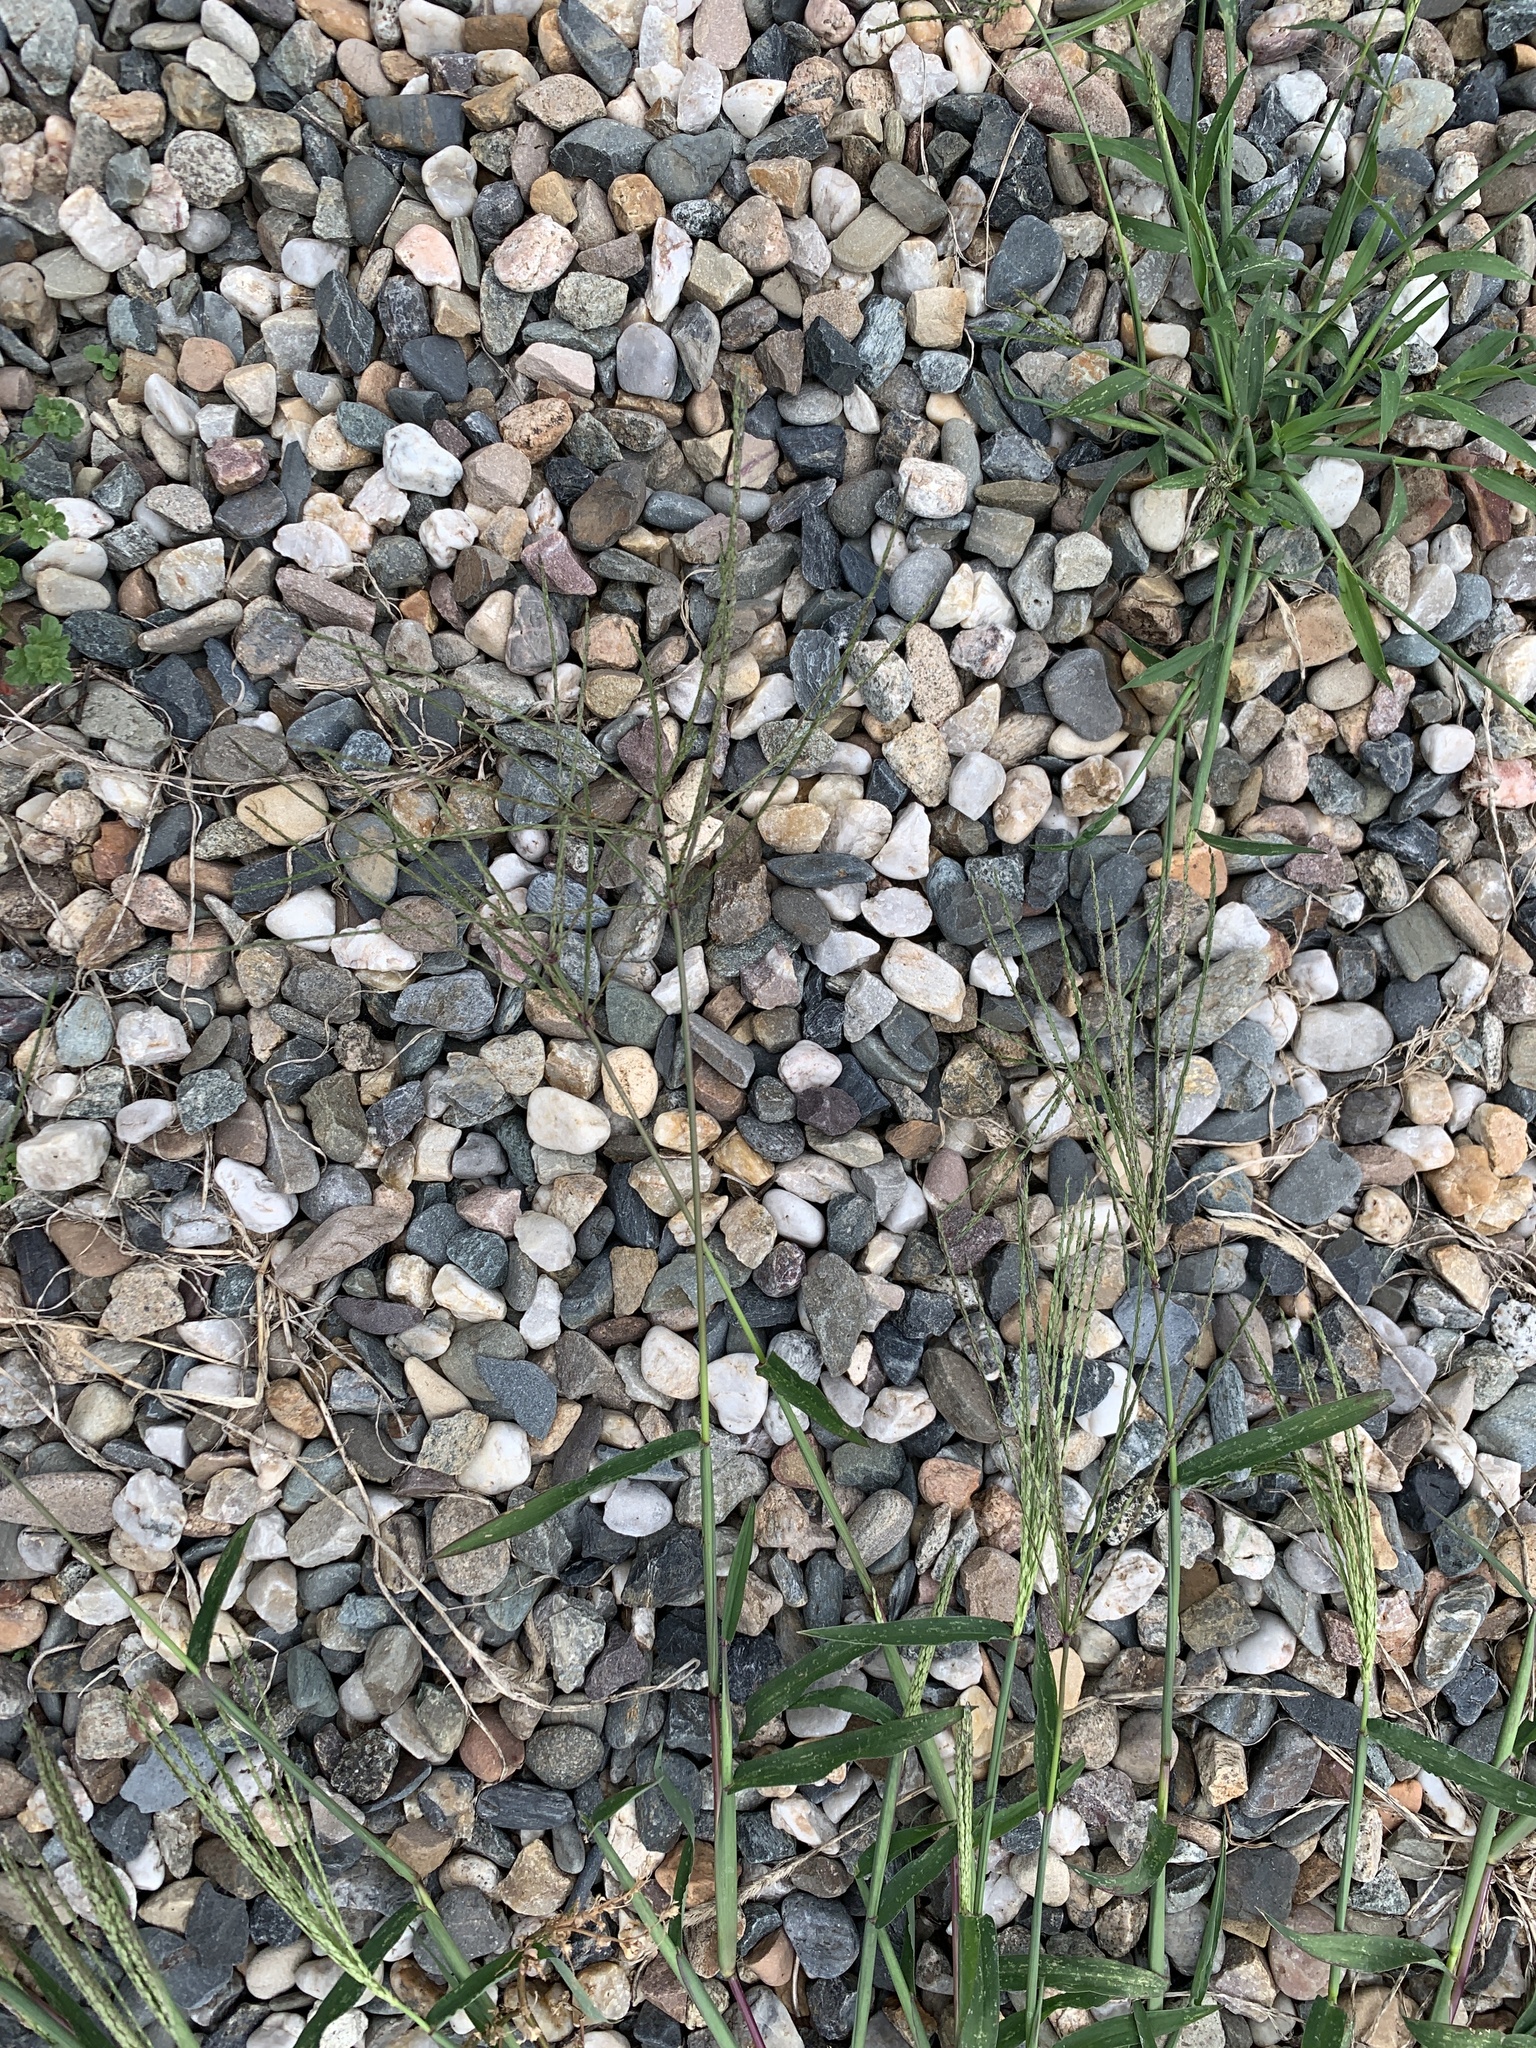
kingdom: Plantae
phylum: Tracheophyta
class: Liliopsida
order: Poales
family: Poaceae
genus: Digitaria
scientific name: Digitaria sanguinalis
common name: Hairy crabgrass
